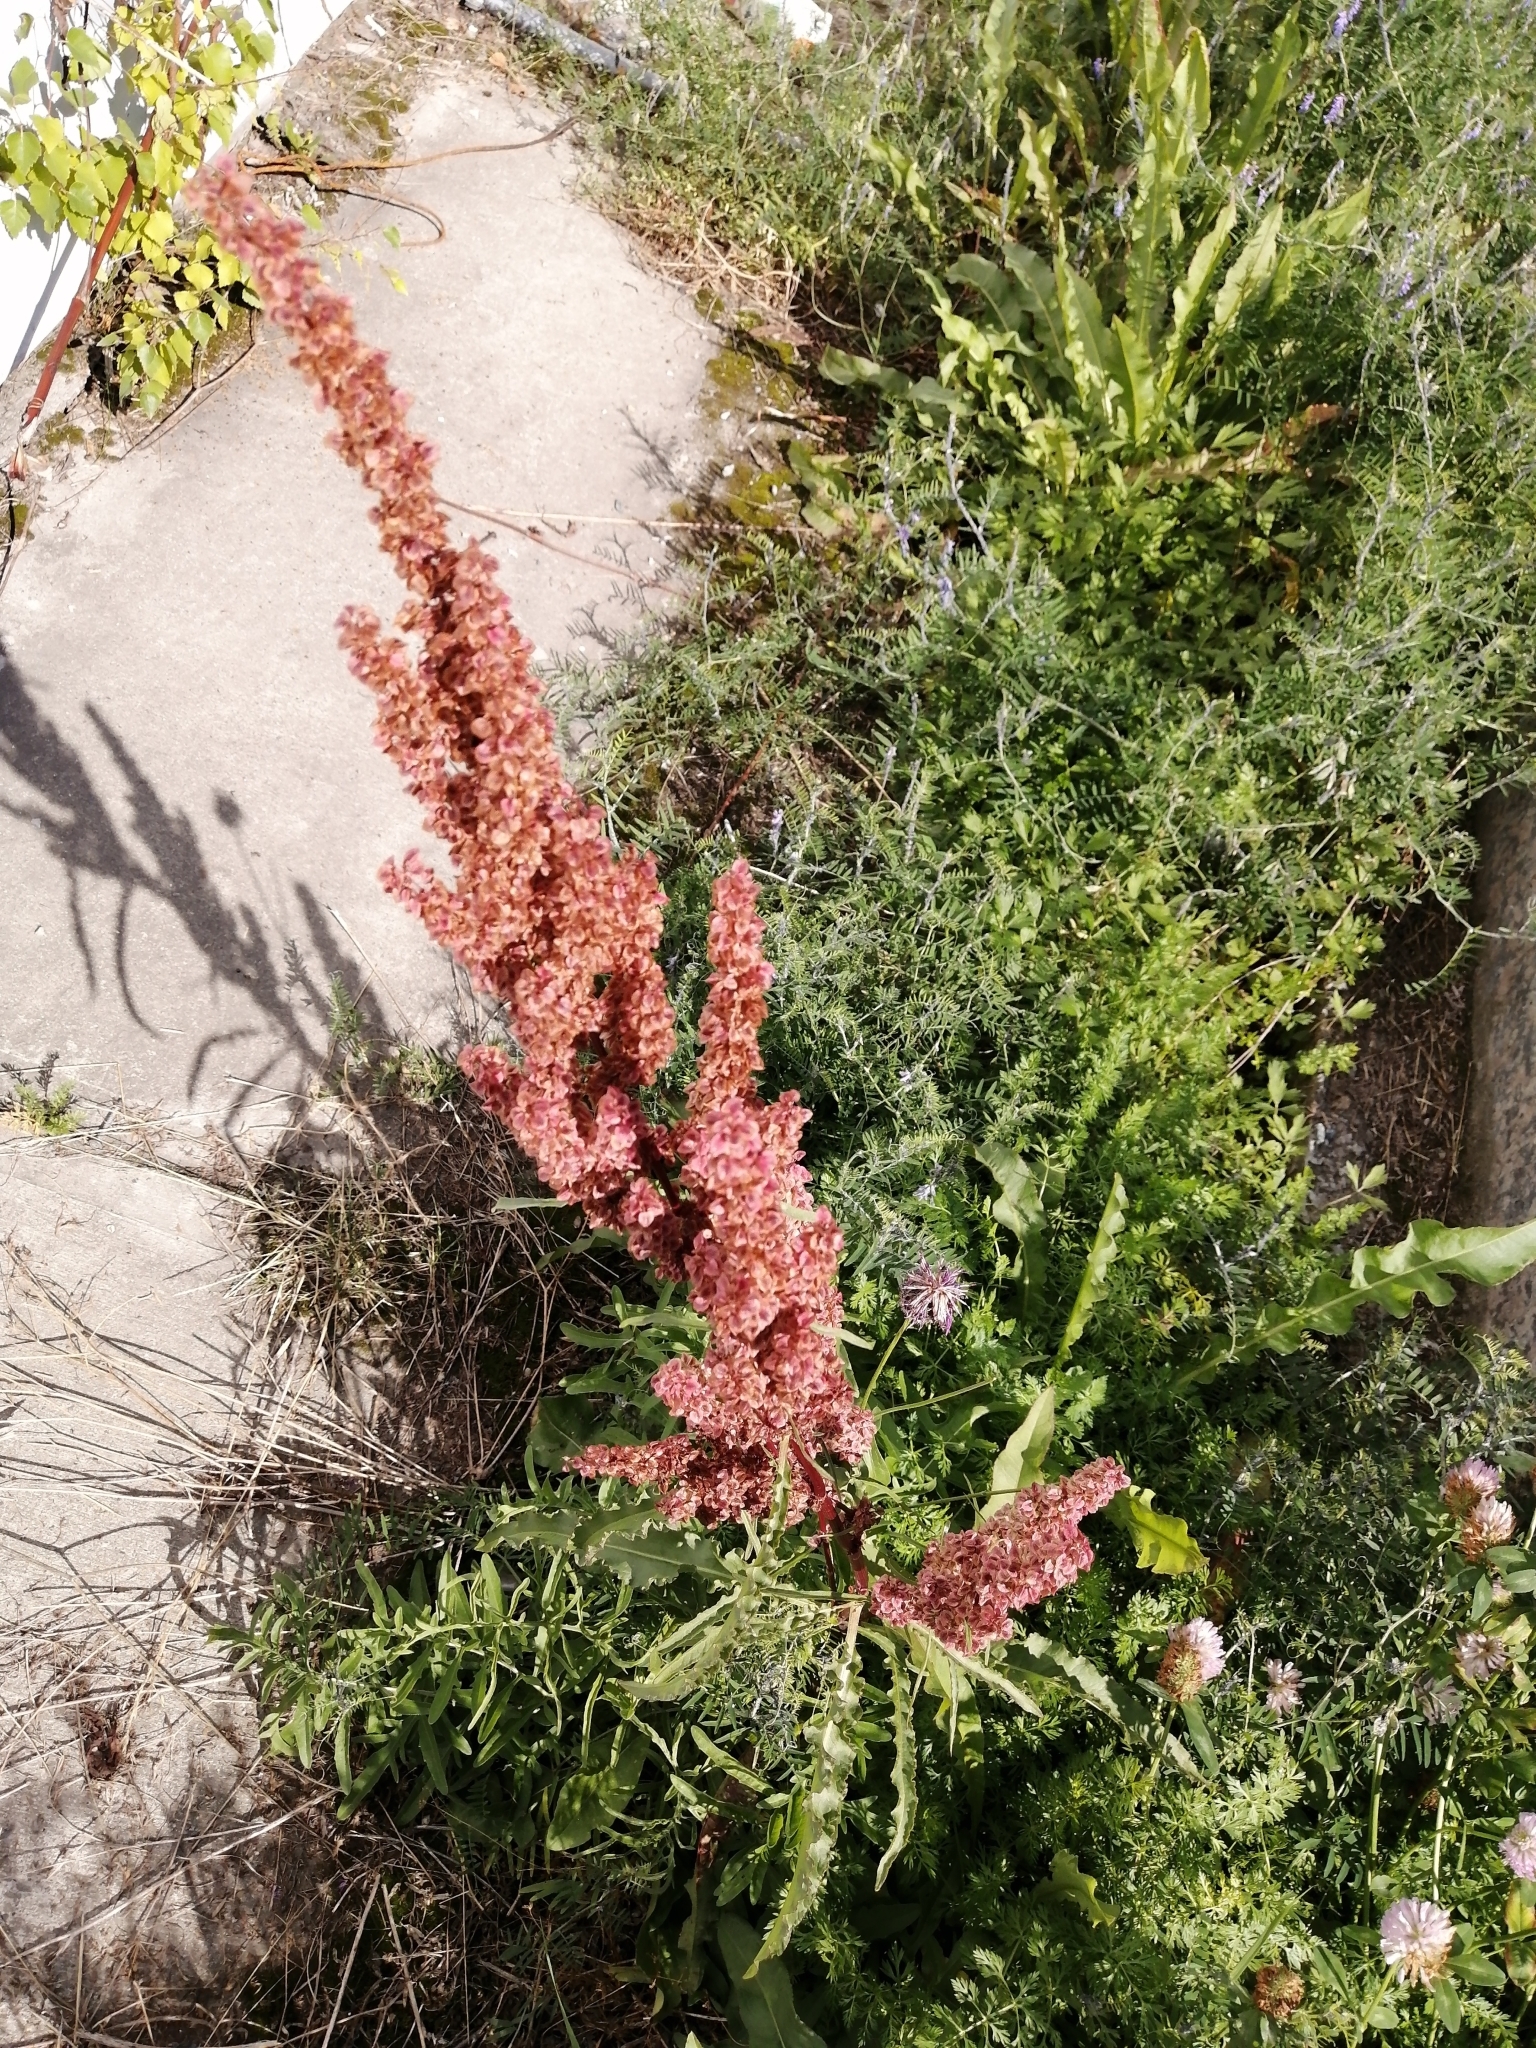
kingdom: Plantae
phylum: Tracheophyta
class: Magnoliopsida
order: Caryophyllales
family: Polygonaceae
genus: Rumex
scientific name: Rumex pseudonatronatus
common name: Field dock
